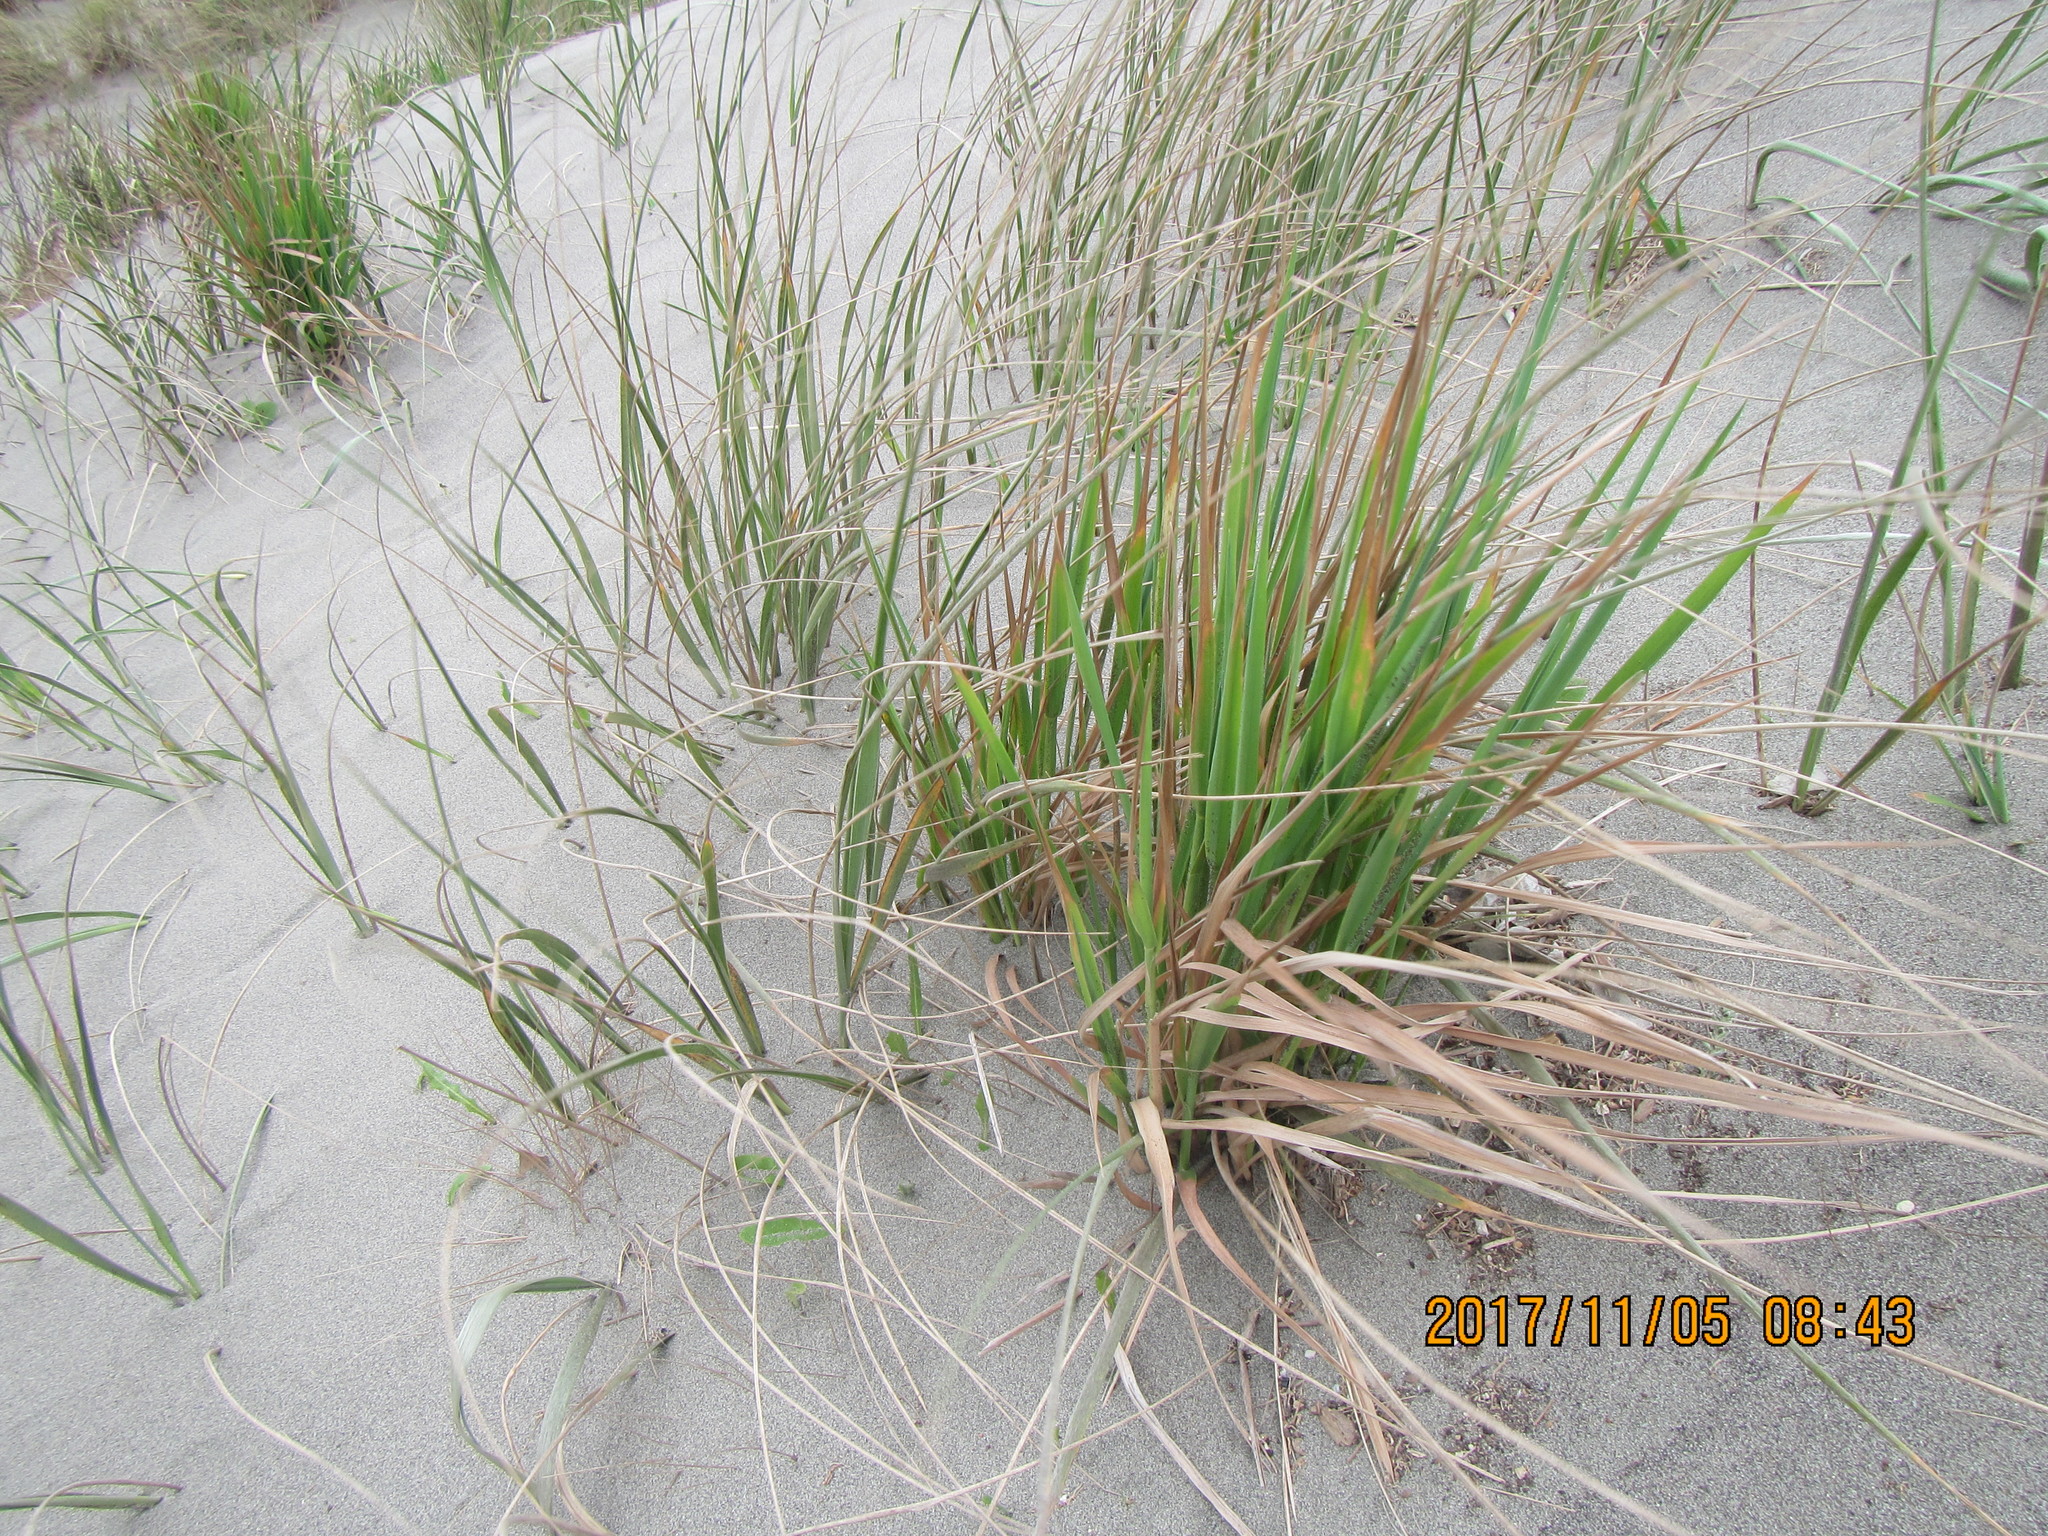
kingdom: Plantae
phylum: Tracheophyta
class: Liliopsida
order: Poales
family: Poaceae
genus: Lachnagrostis
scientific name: Lachnagrostis billardierei
